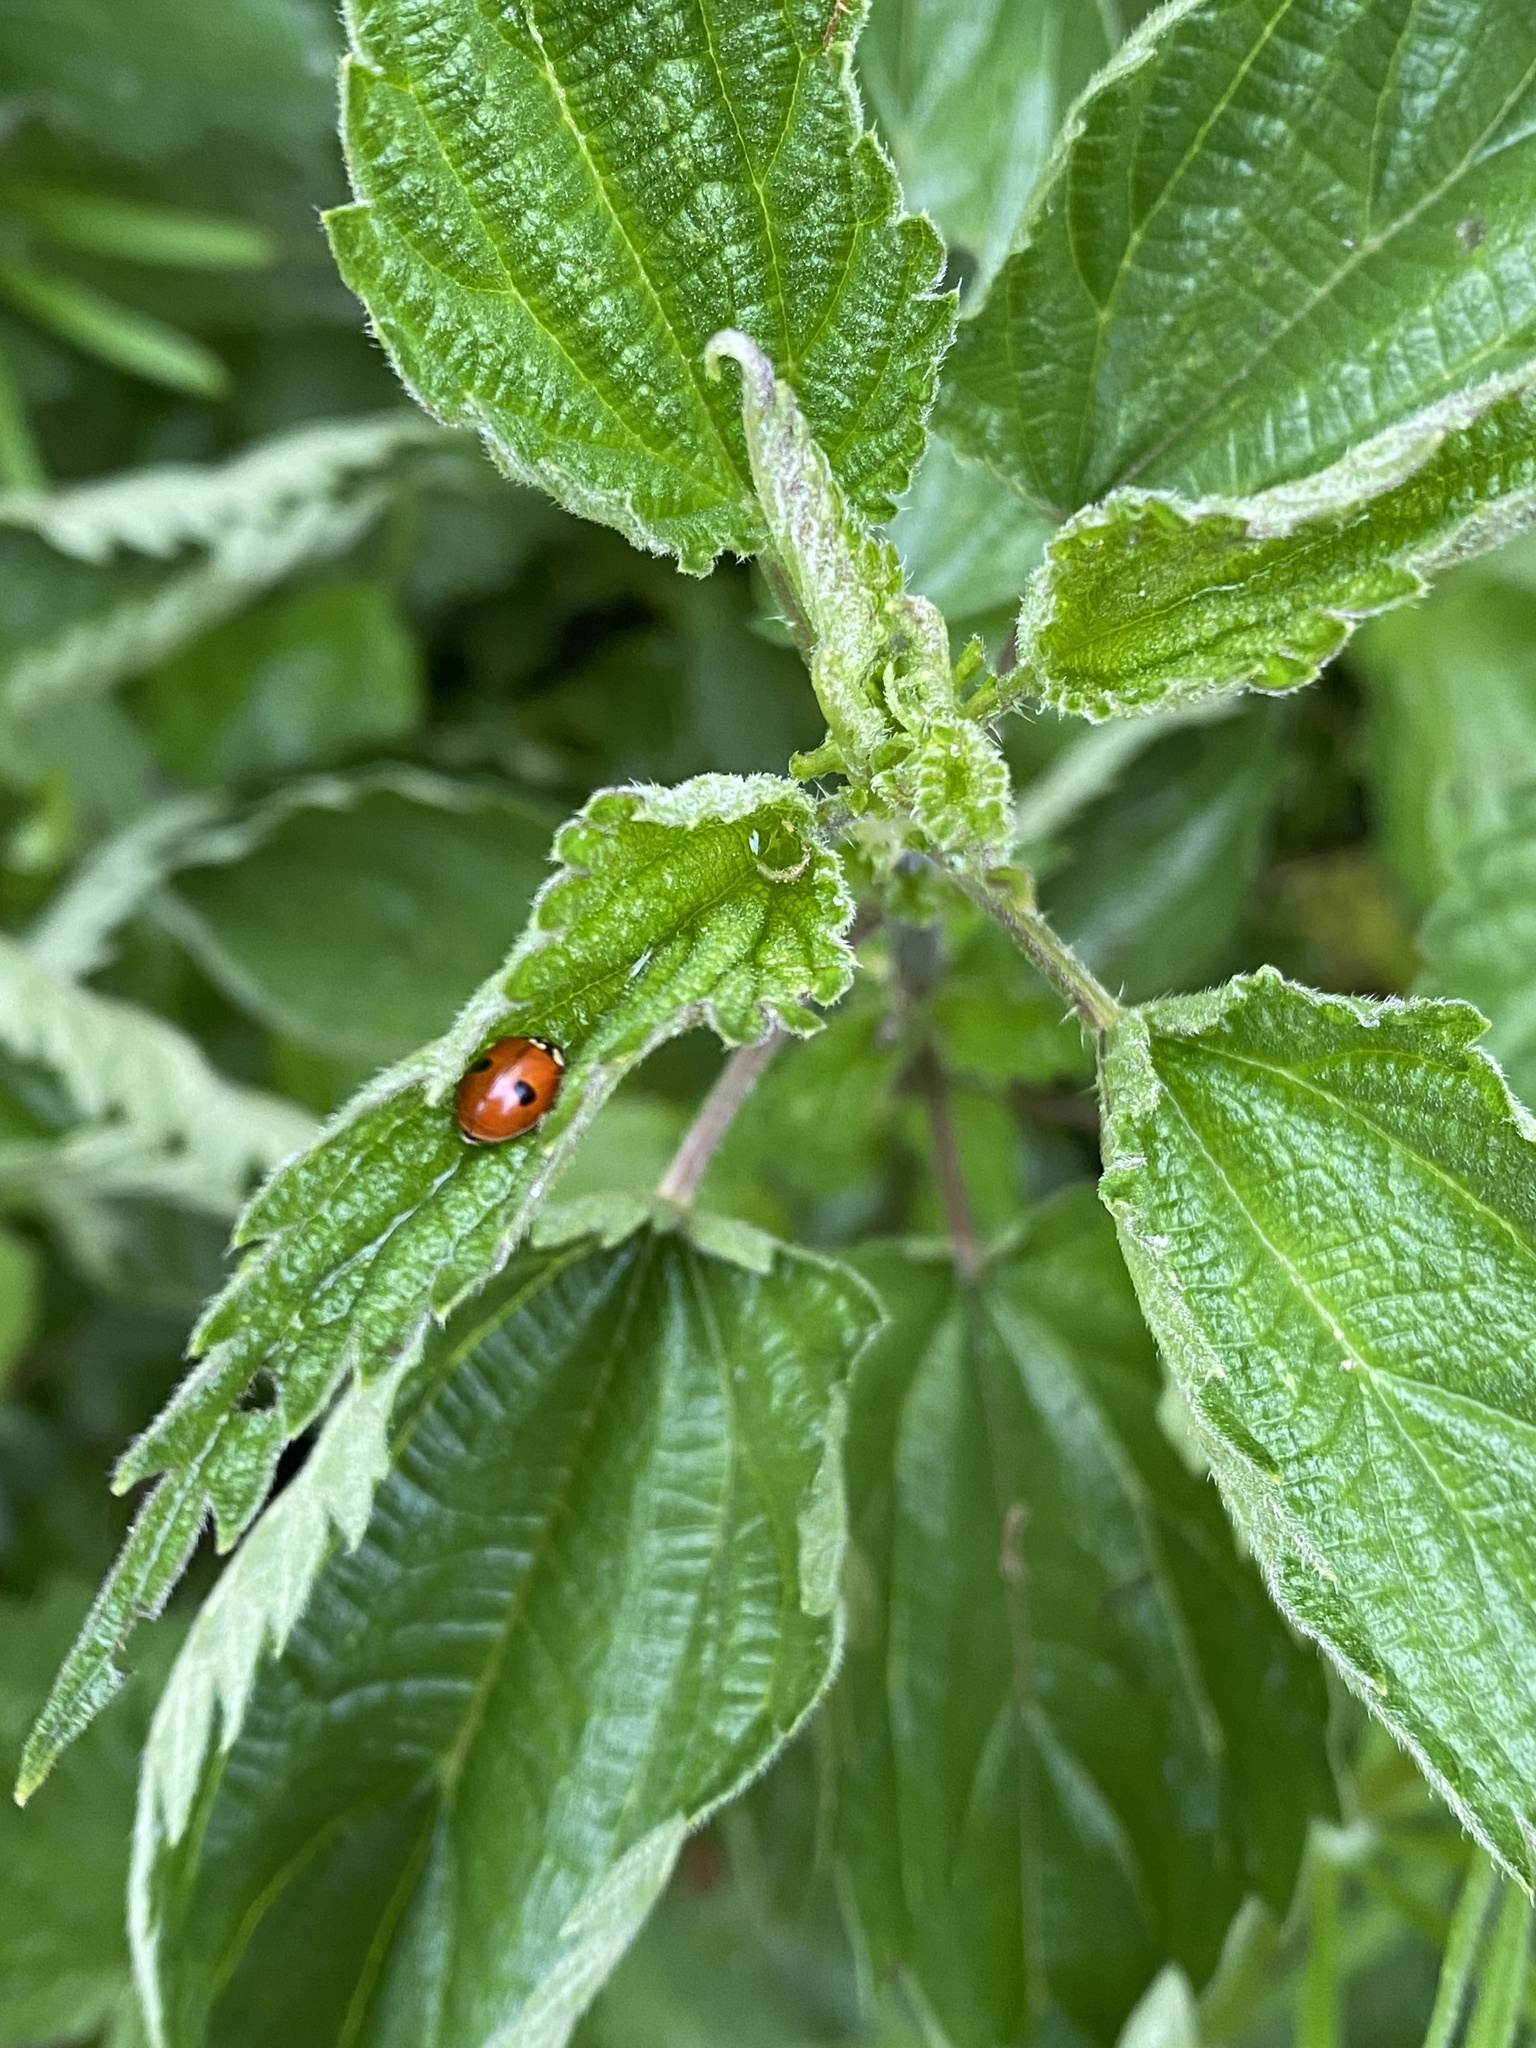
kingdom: Animalia
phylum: Arthropoda
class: Insecta
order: Coleoptera
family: Coccinellidae
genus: Adalia
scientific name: Adalia bipunctata
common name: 2-spot ladybird
